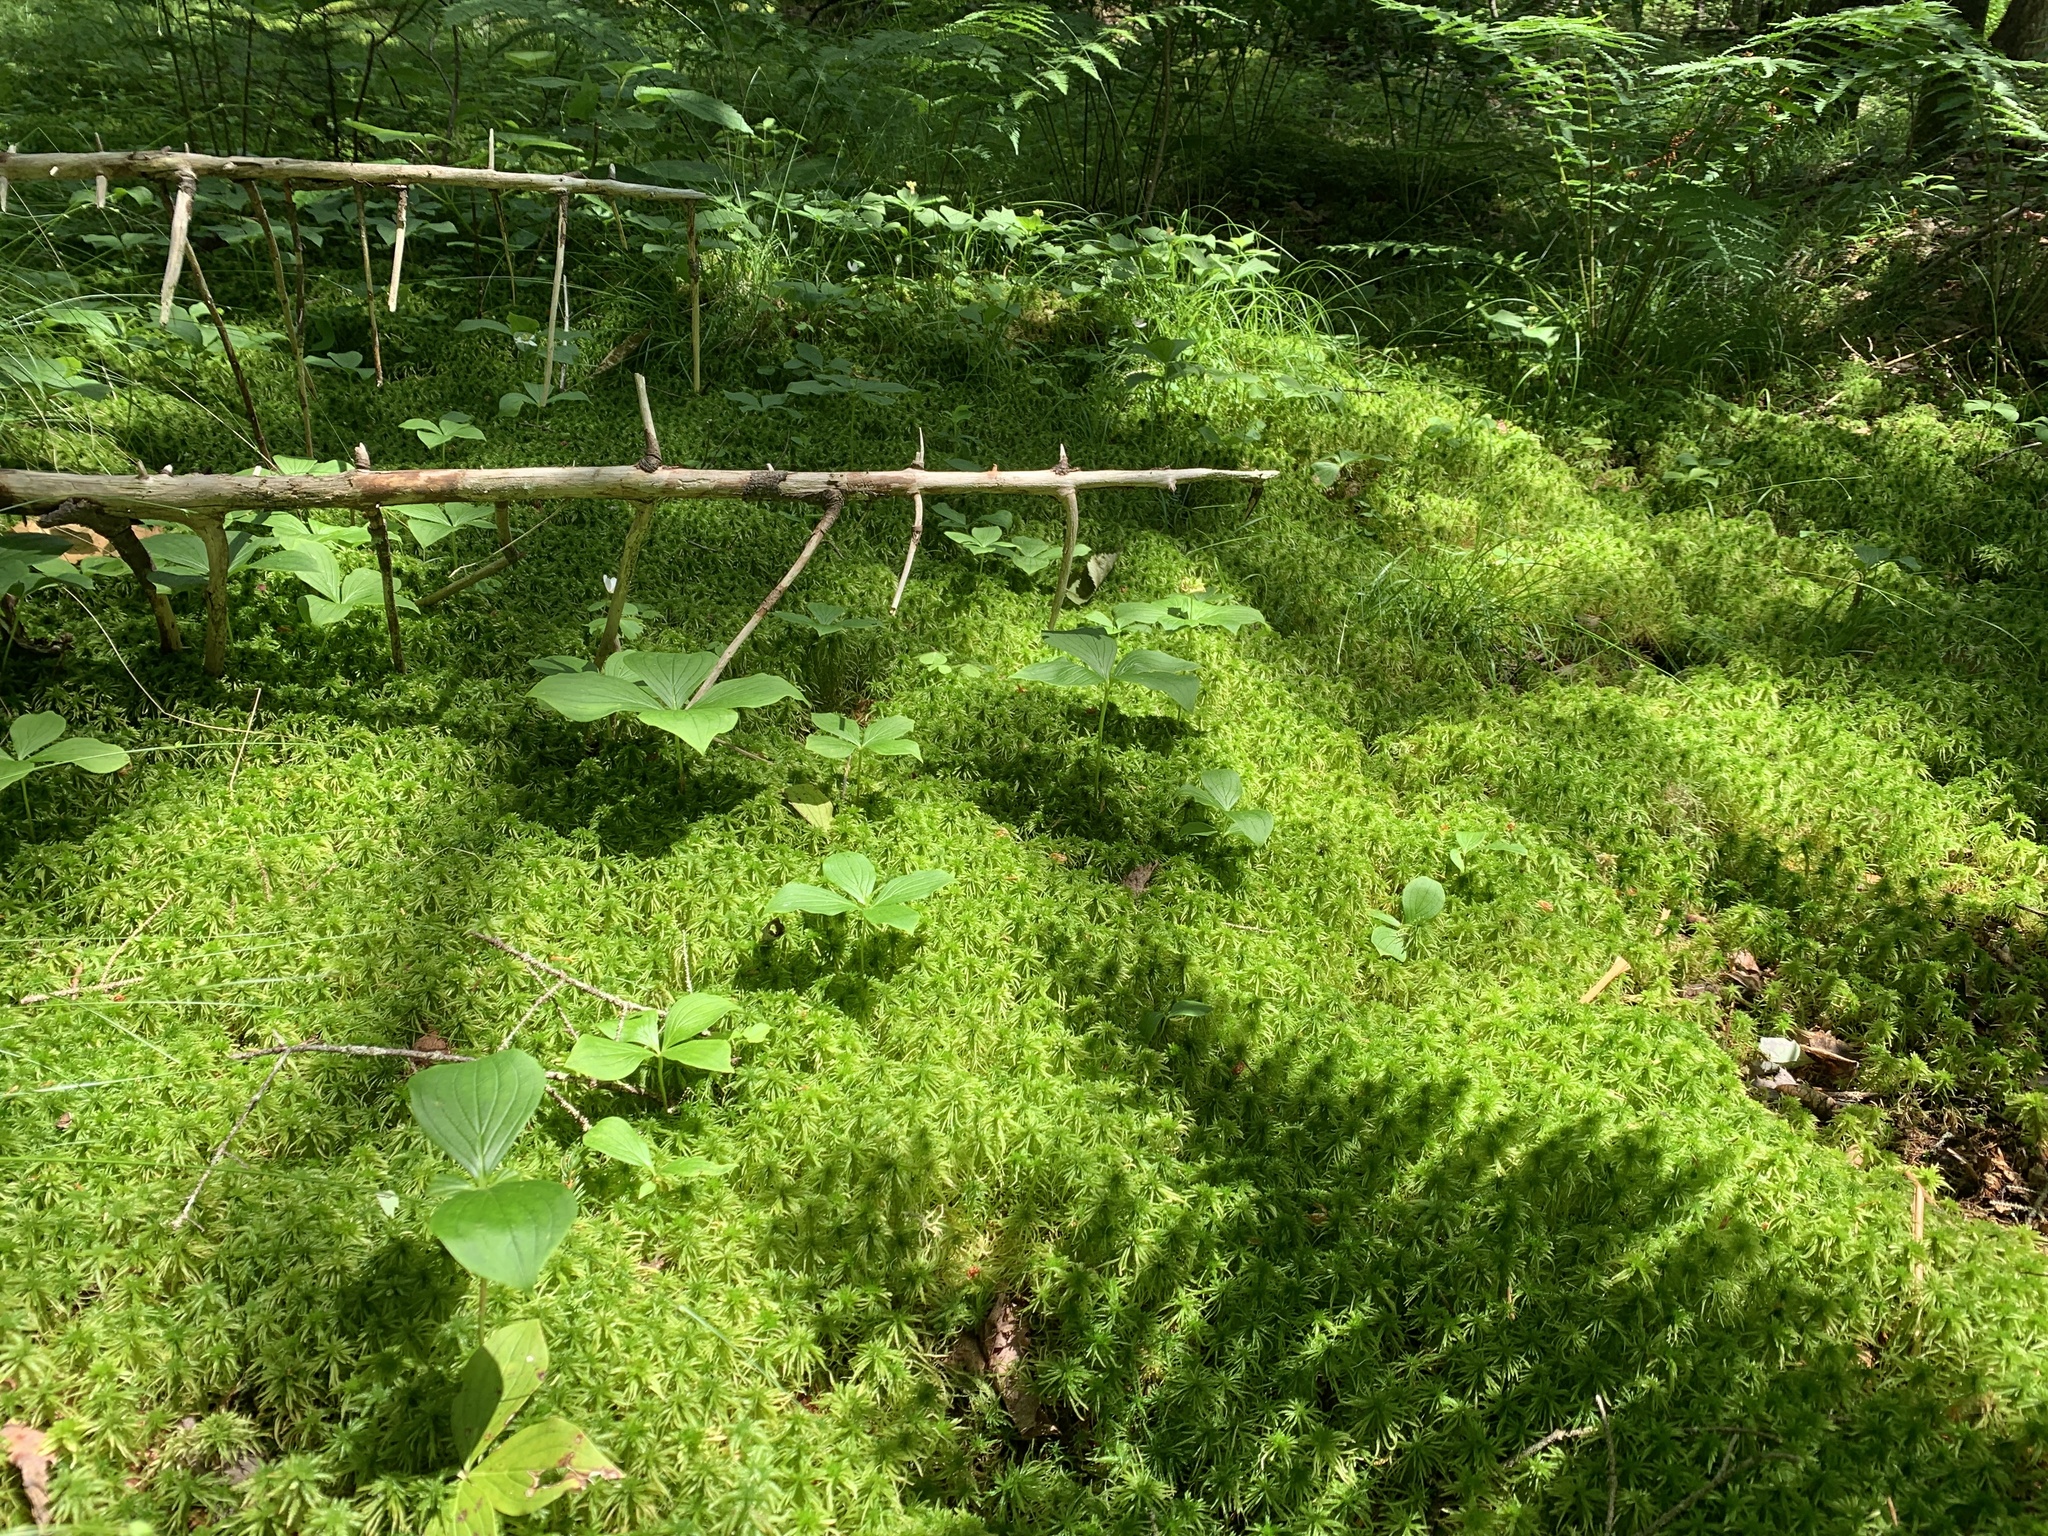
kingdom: Plantae
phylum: Tracheophyta
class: Magnoliopsida
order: Cornales
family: Cornaceae
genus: Cornus
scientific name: Cornus canadensis
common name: Creeping dogwood
